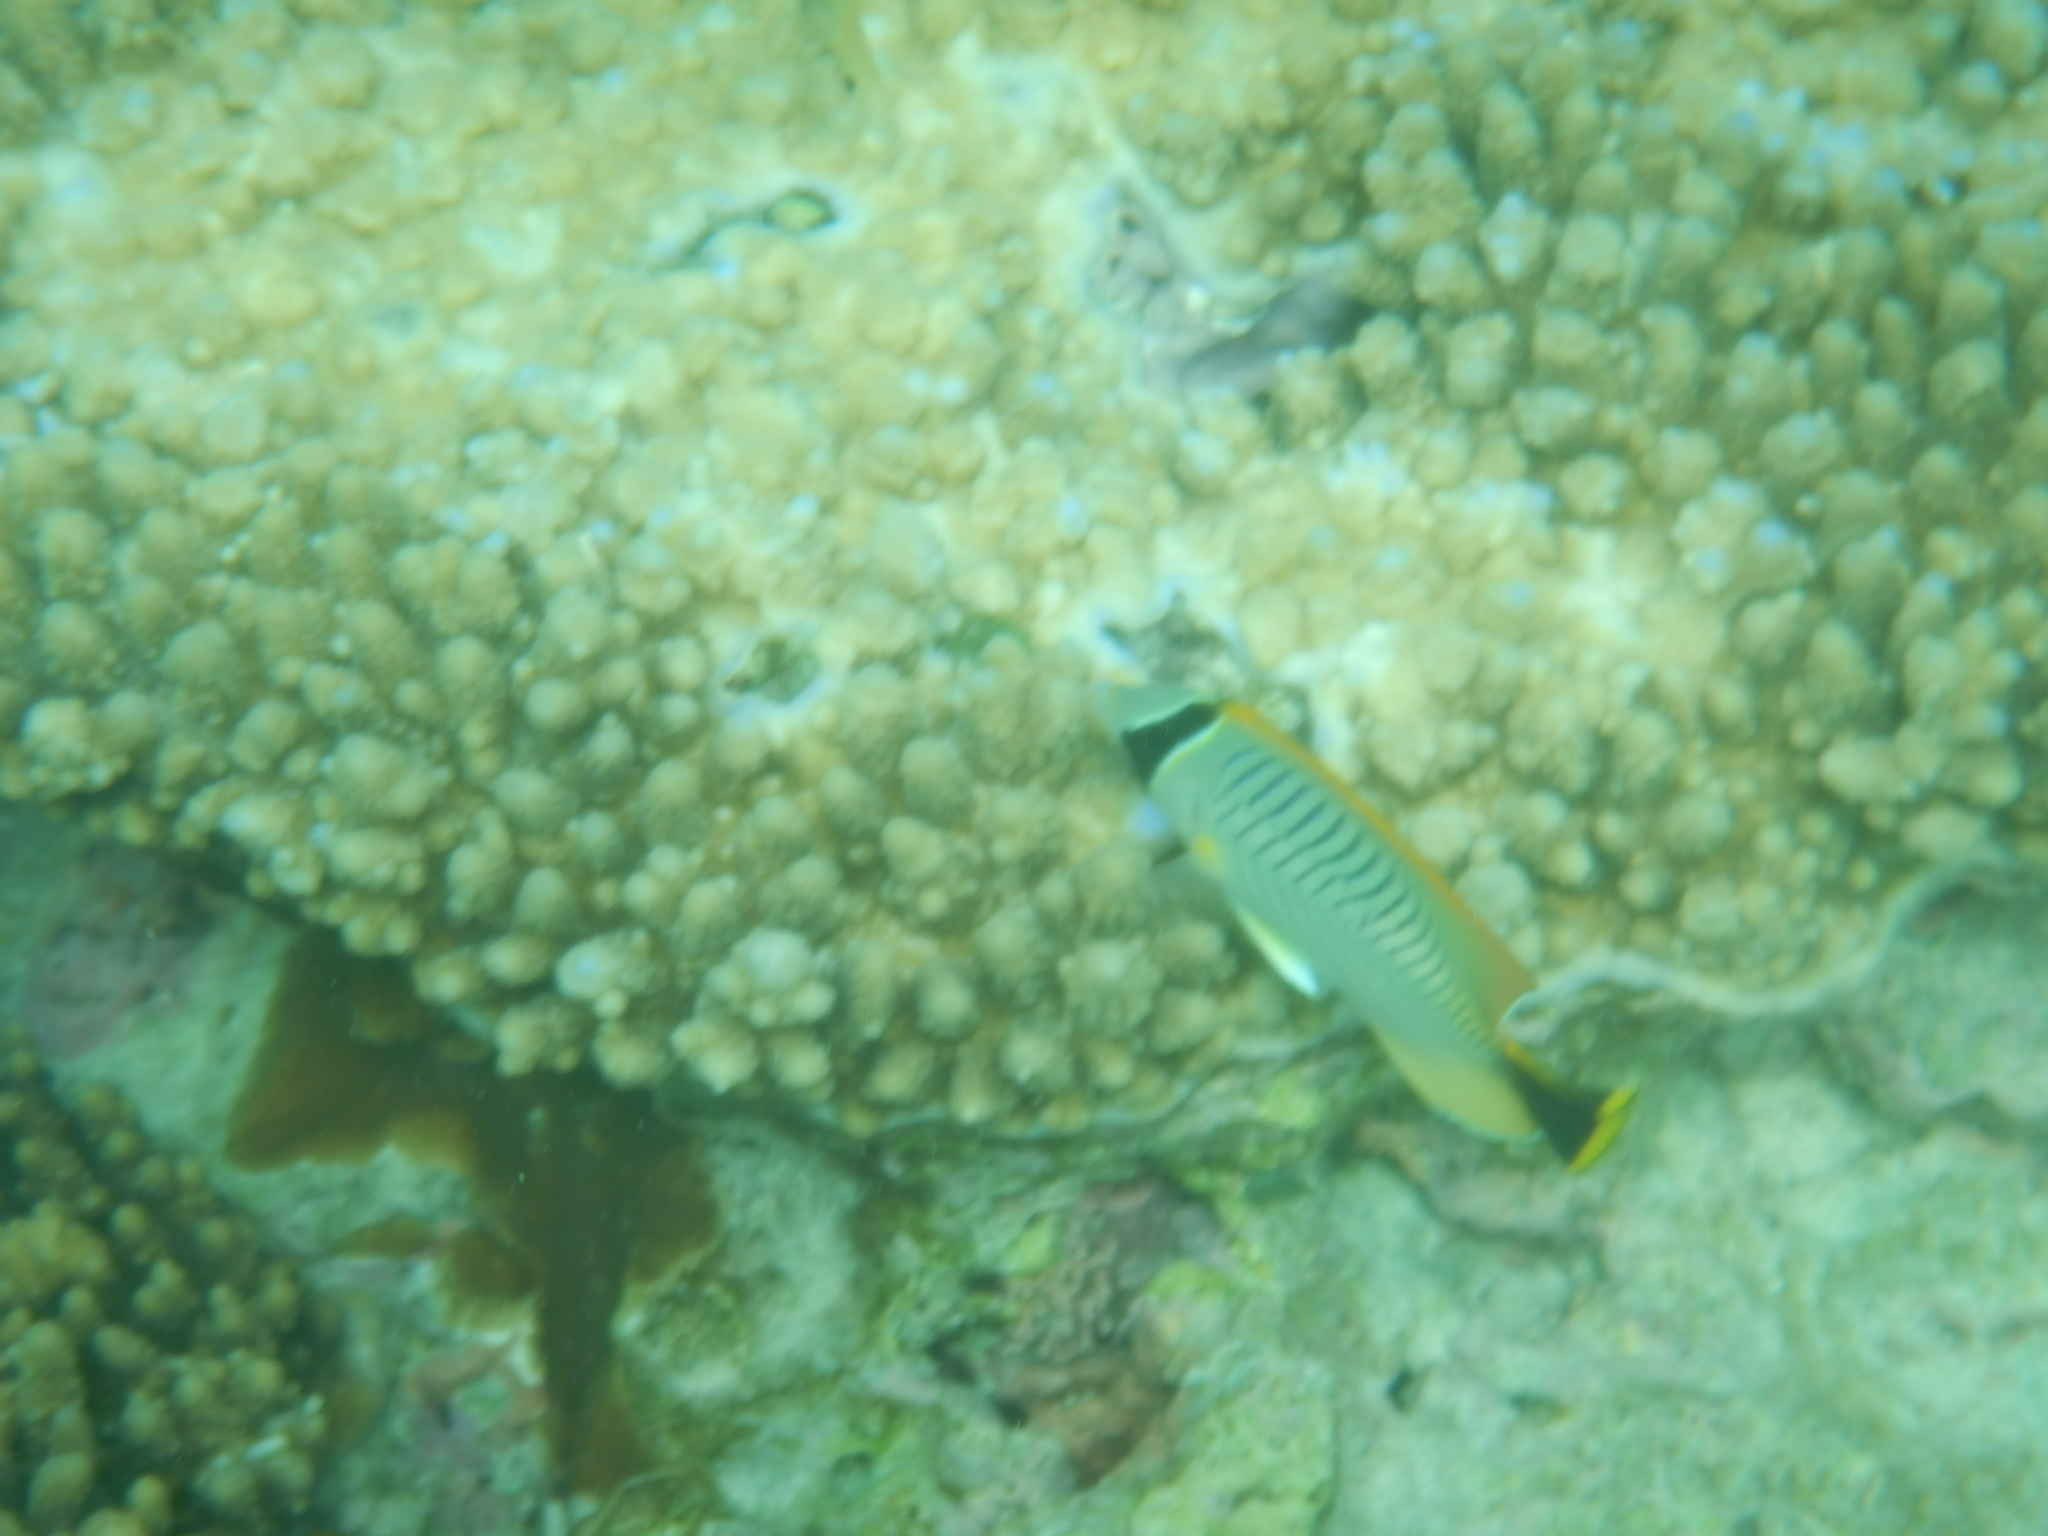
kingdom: Animalia
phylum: Chordata
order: Perciformes
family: Chaetodontidae
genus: Chaetodon
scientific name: Chaetodon trifascialis
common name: Chevroned butterflyfish
